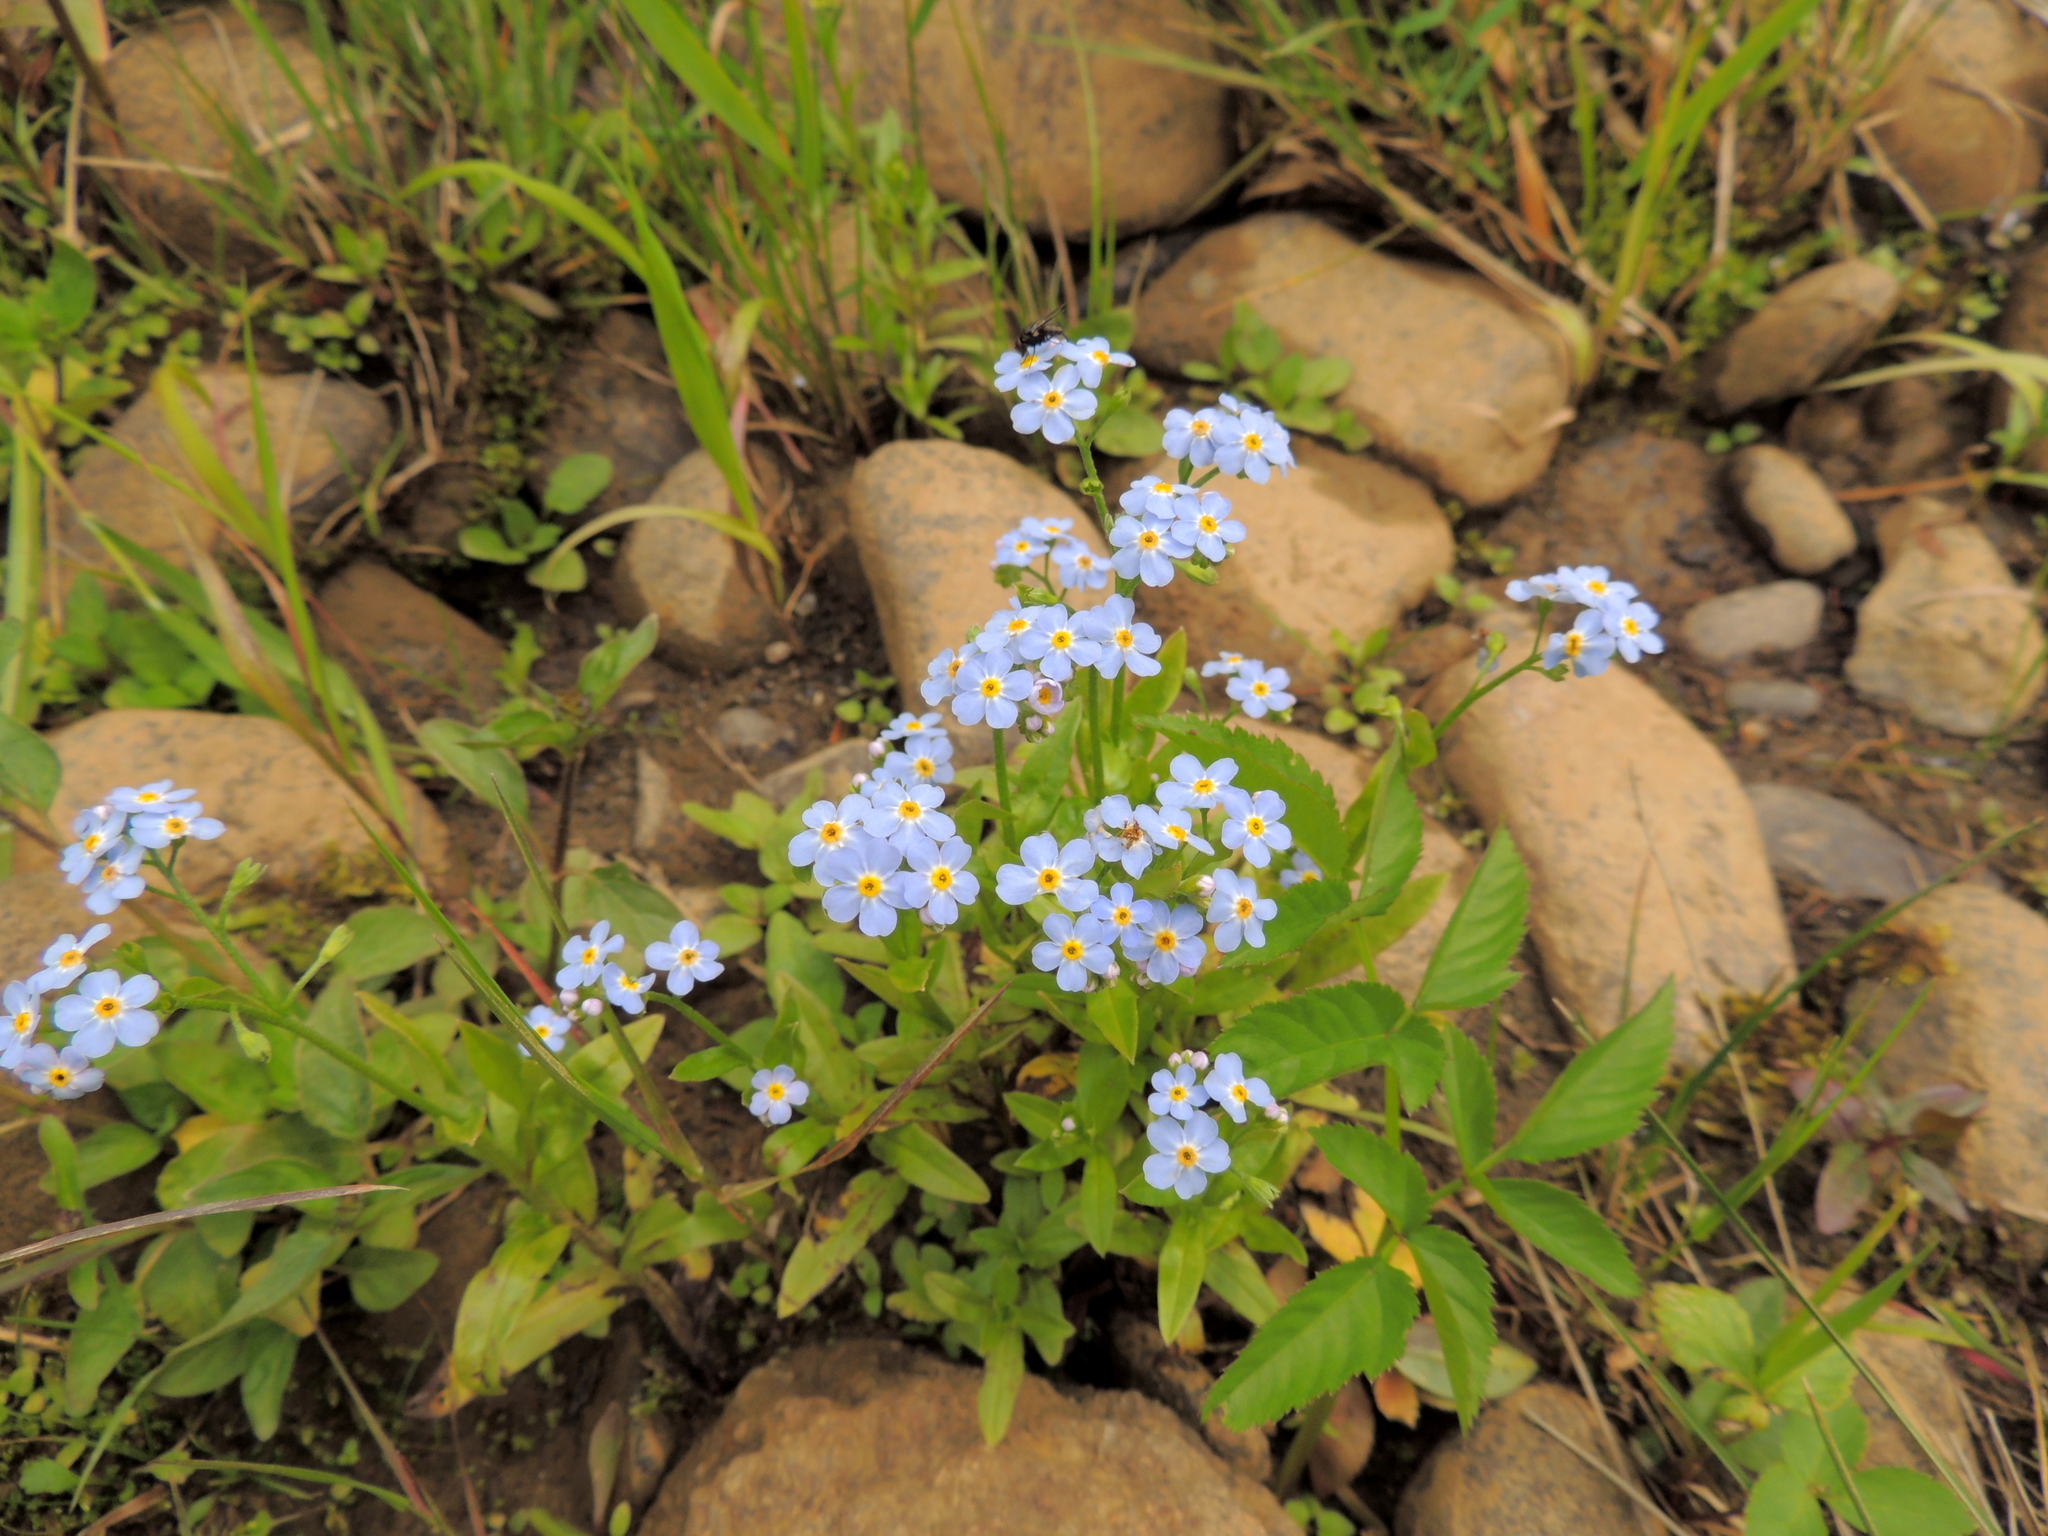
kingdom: Plantae
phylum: Tracheophyta
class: Magnoliopsida
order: Boraginales
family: Boraginaceae
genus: Myosotis
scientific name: Myosotis scorpioides
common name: Water forget-me-not
